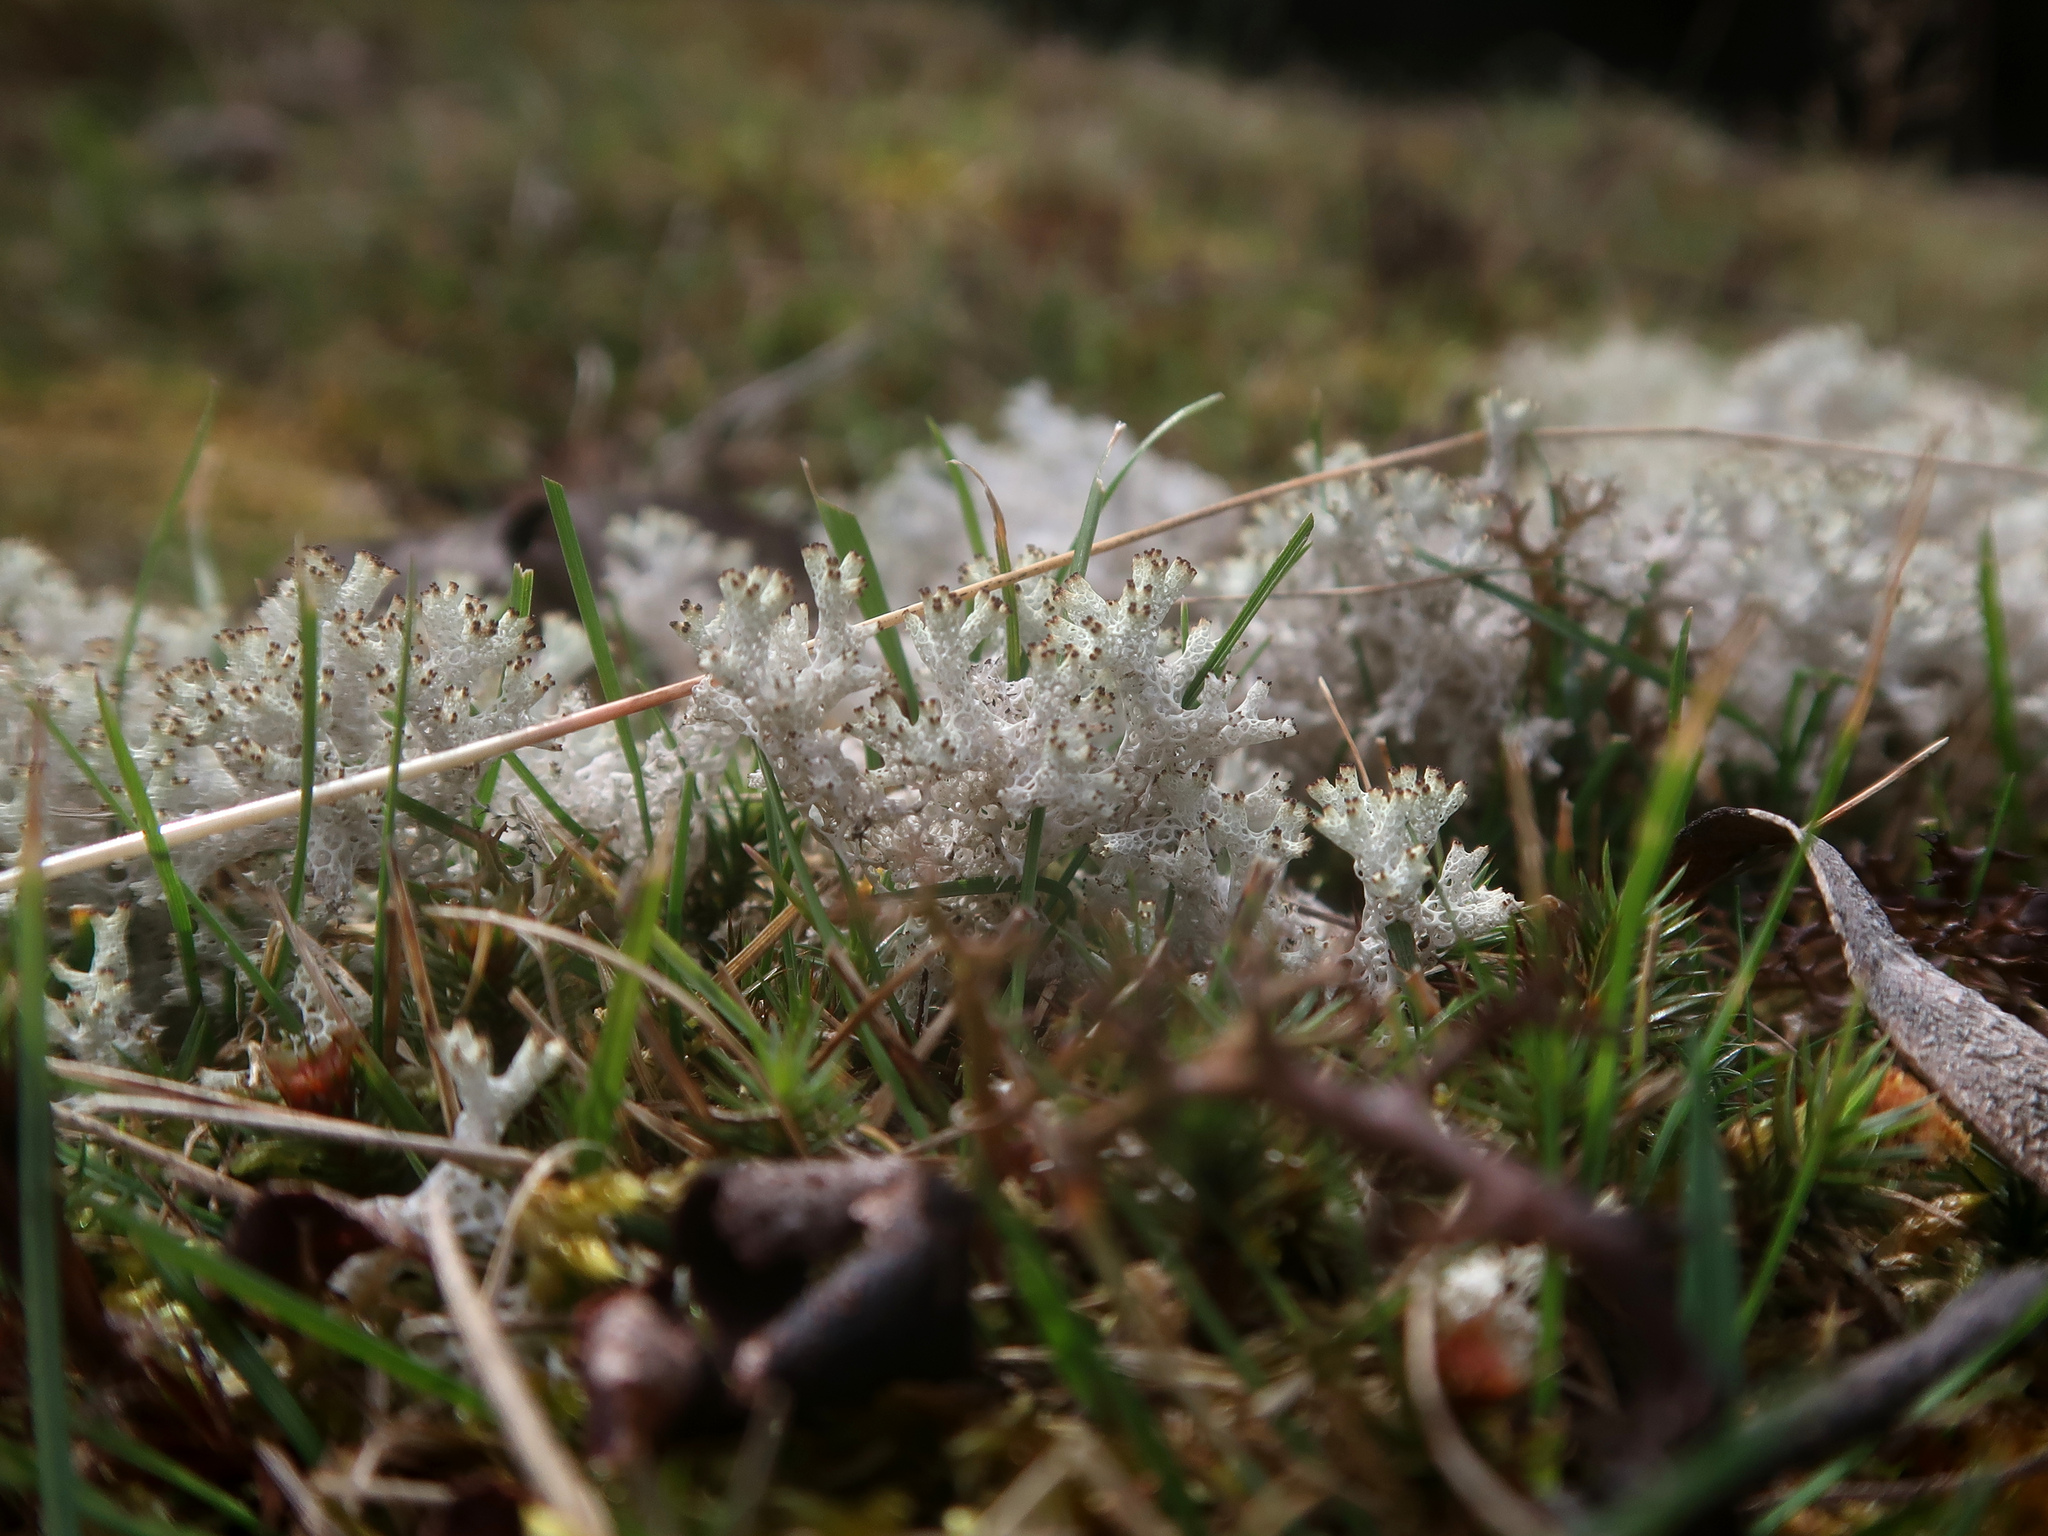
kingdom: Fungi
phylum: Ascomycota
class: Lecanoromycetes
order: Lecanorales
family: Cladoniaceae
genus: Pulchrocladia
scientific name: Pulchrocladia retipora
